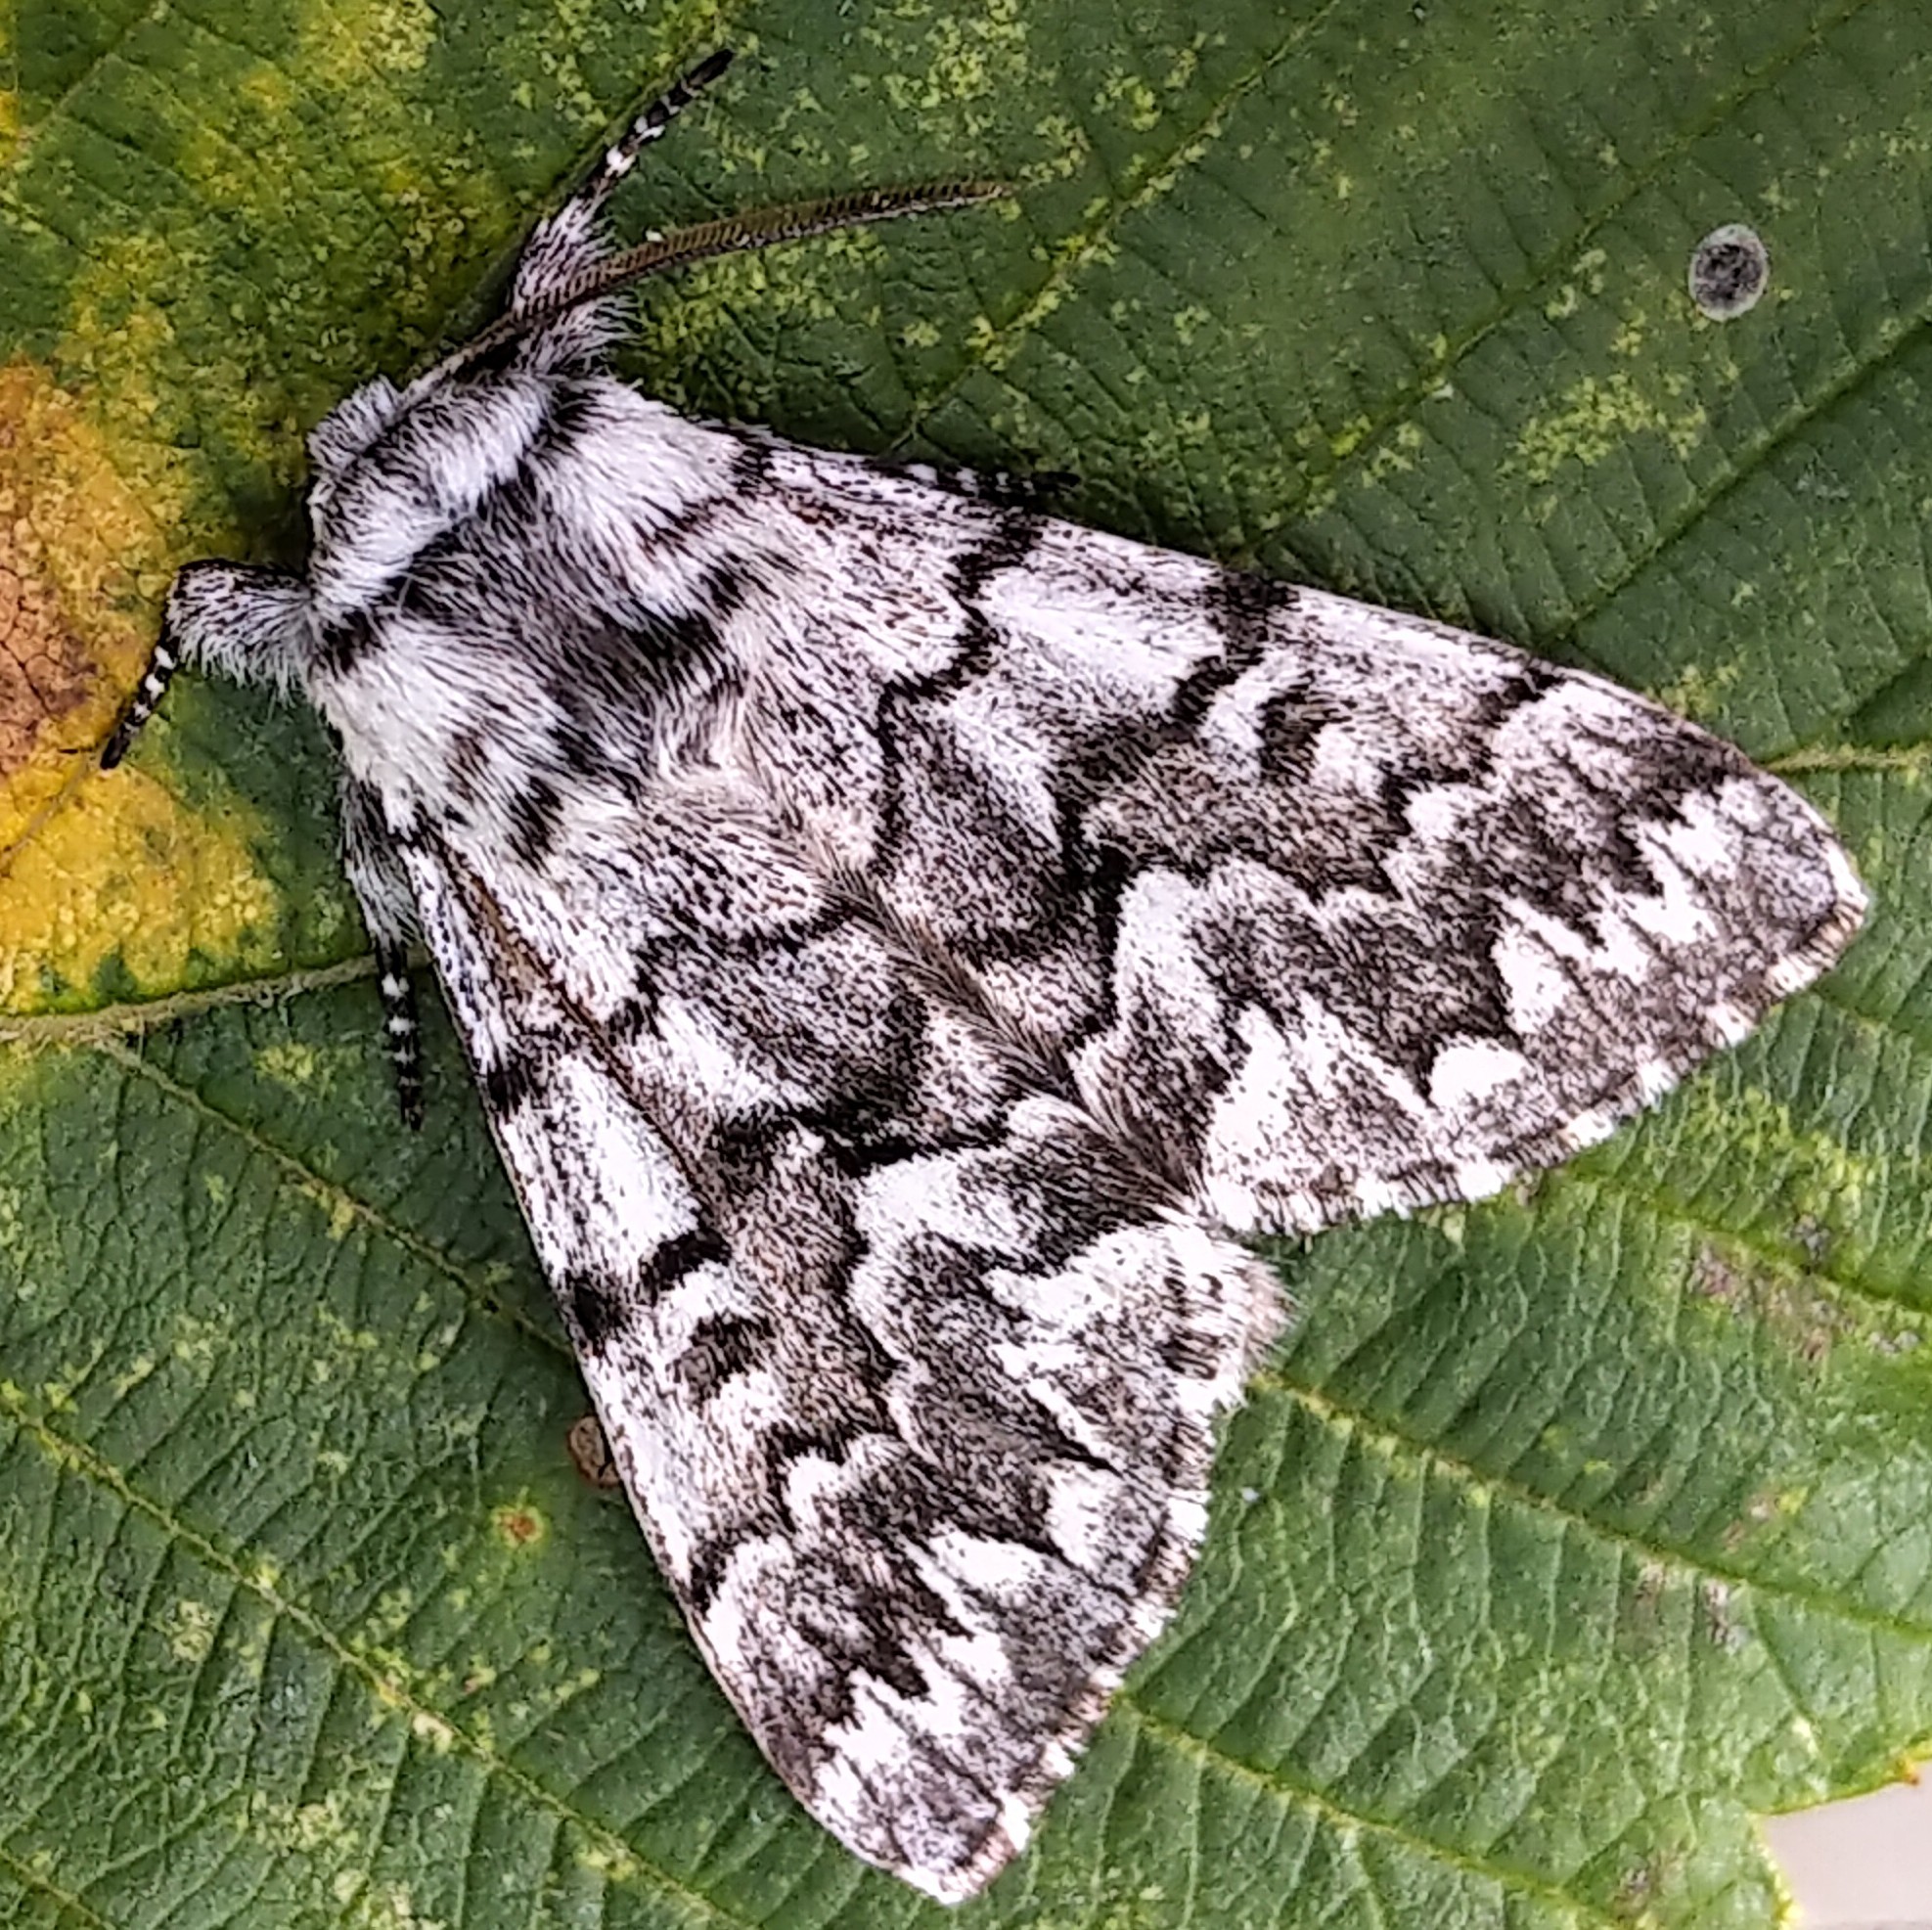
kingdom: Animalia
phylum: Arthropoda
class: Insecta
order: Lepidoptera
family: Noctuidae
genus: Panthea
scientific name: Panthea virginarius
